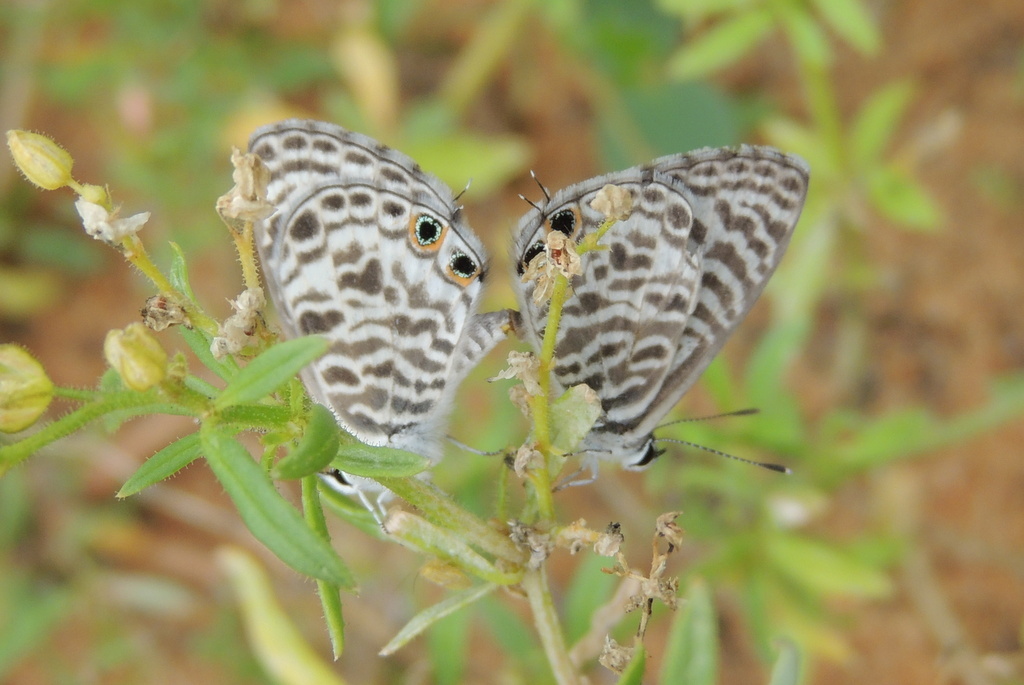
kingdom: Animalia
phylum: Arthropoda
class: Insecta
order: Lepidoptera
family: Lycaenidae
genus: Leptotes
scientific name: Leptotes plinius
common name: Zebra blue
